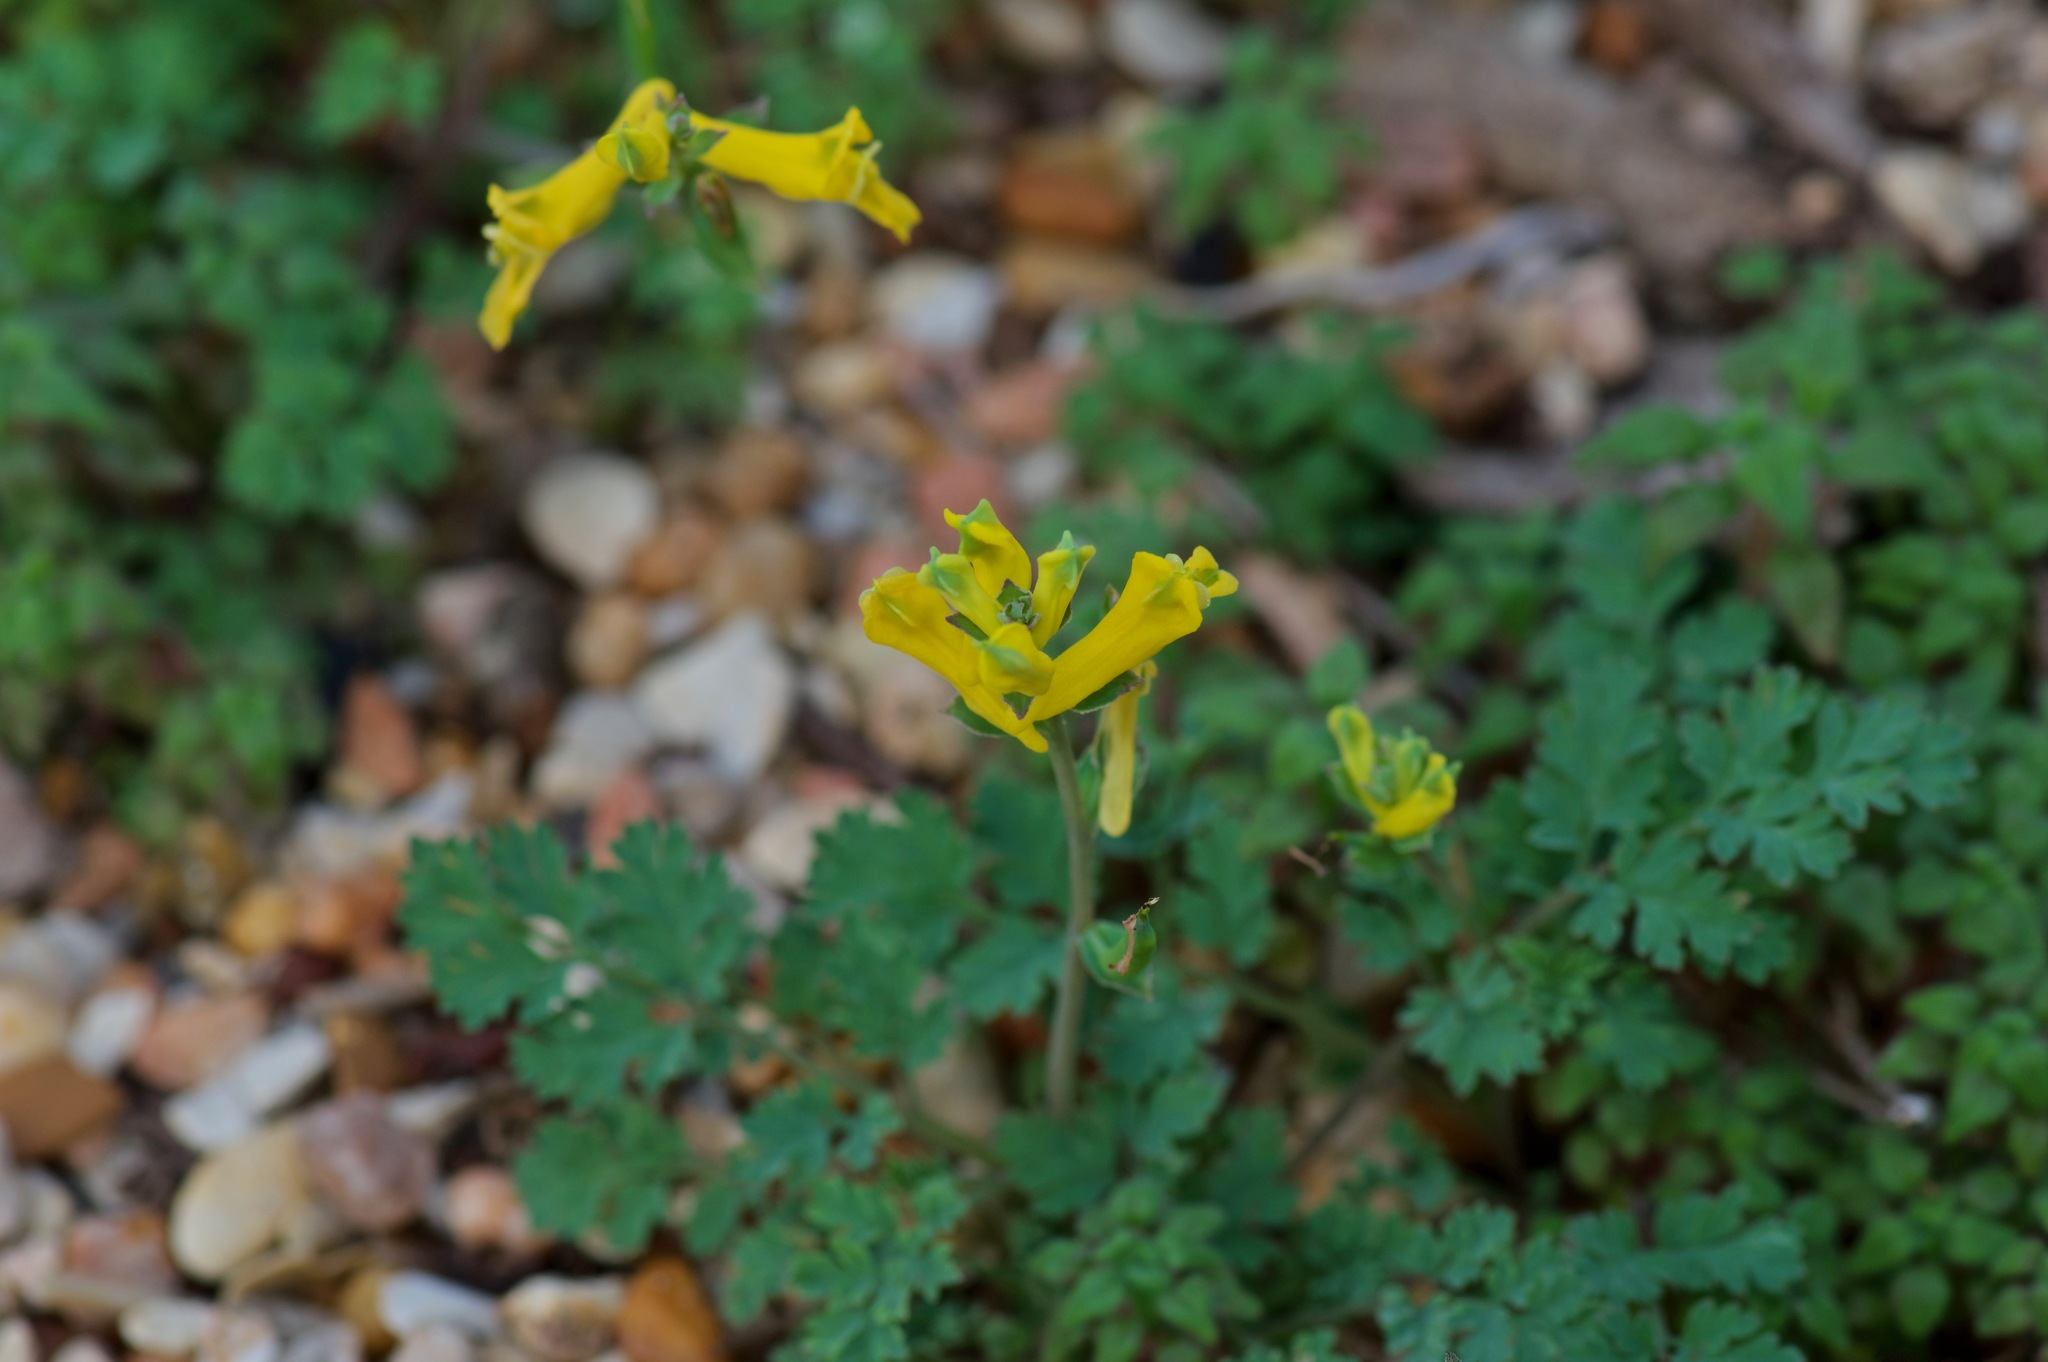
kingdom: Plantae
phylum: Tracheophyta
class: Magnoliopsida
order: Ranunculales
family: Papaveraceae
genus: Corydalis
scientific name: Corydalis micrantha
